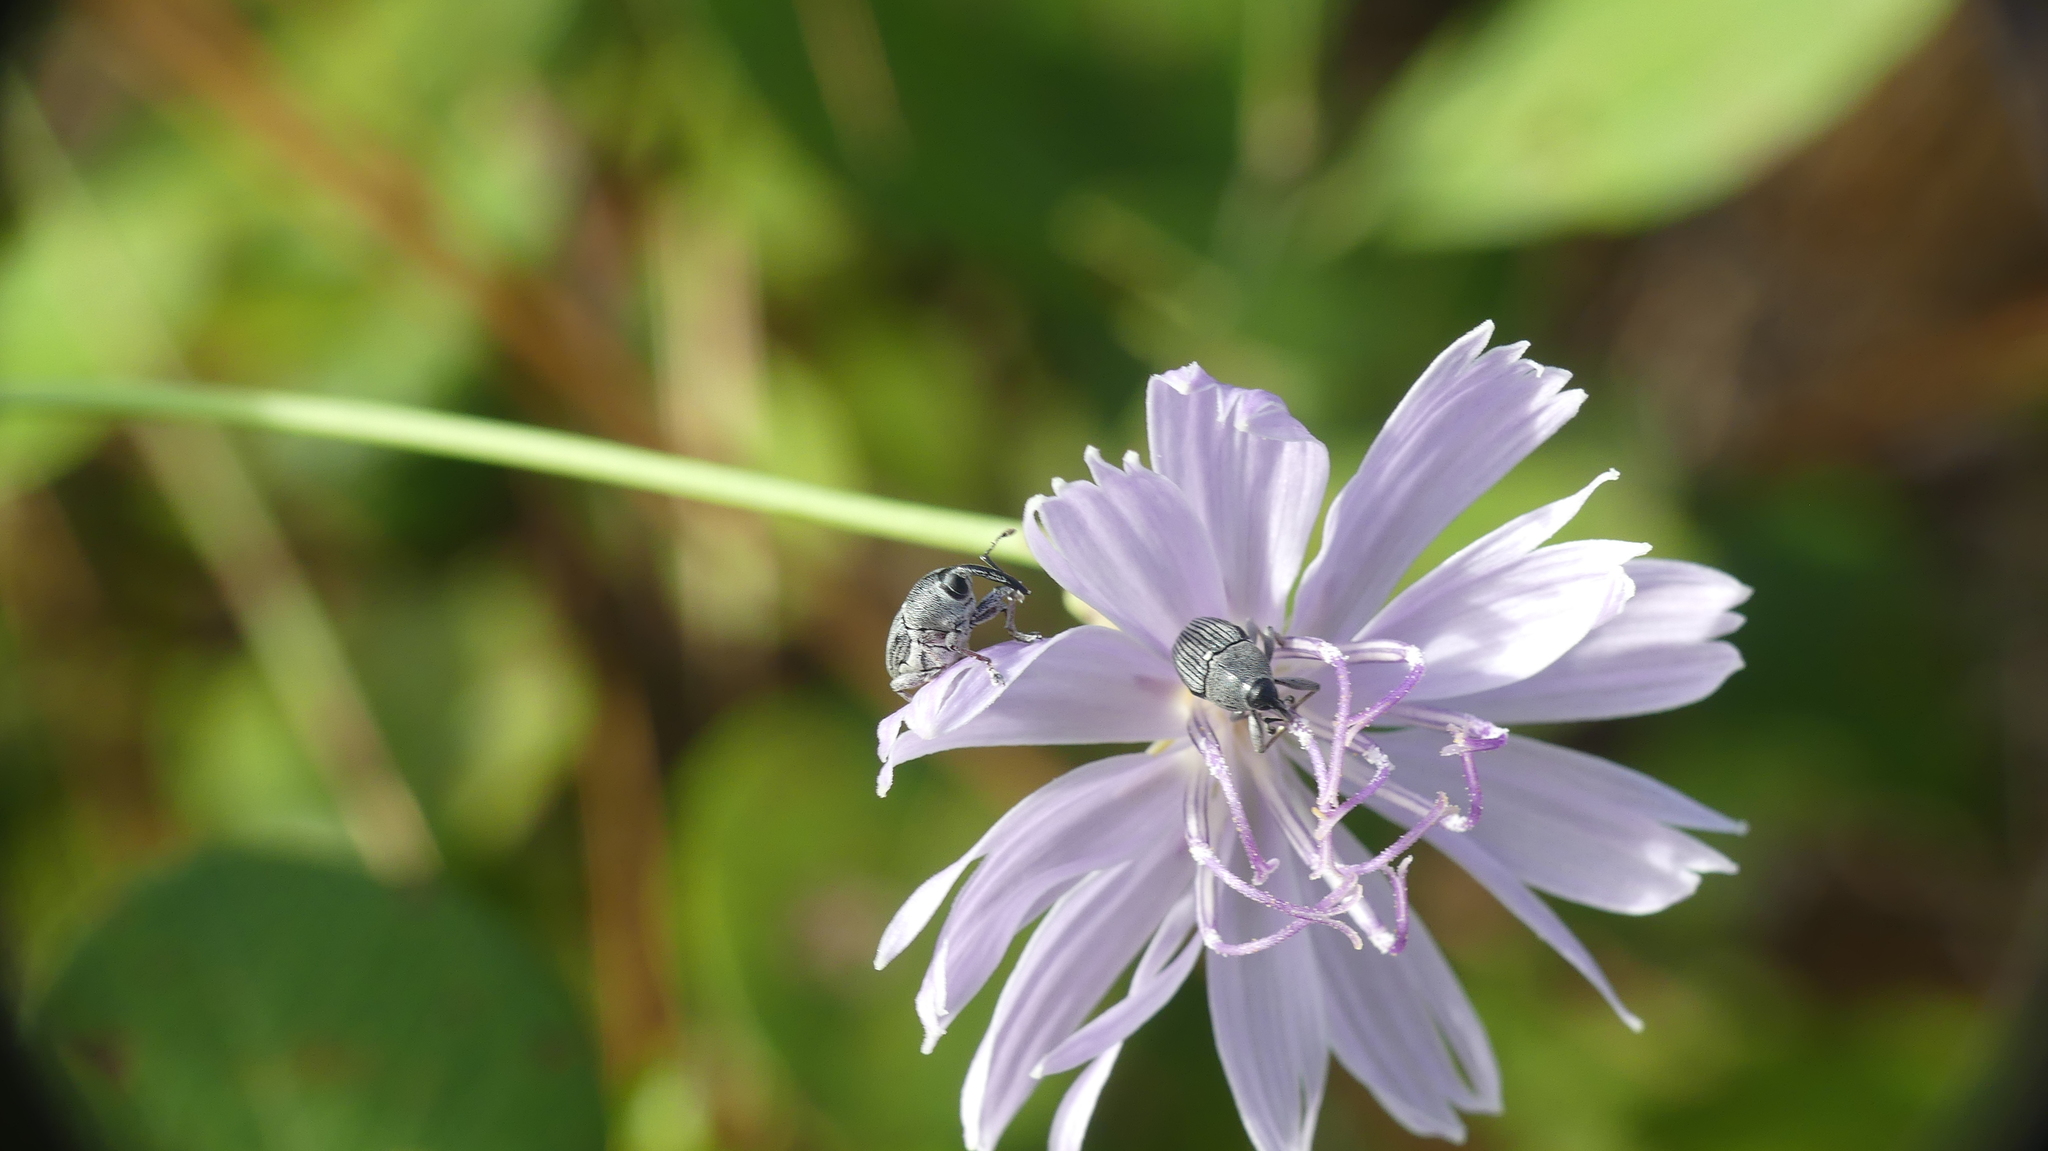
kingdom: Animalia
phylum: Arthropoda
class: Insecta
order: Coleoptera
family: Curculionidae
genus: Odontocorynus
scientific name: Odontocorynus larvatus
